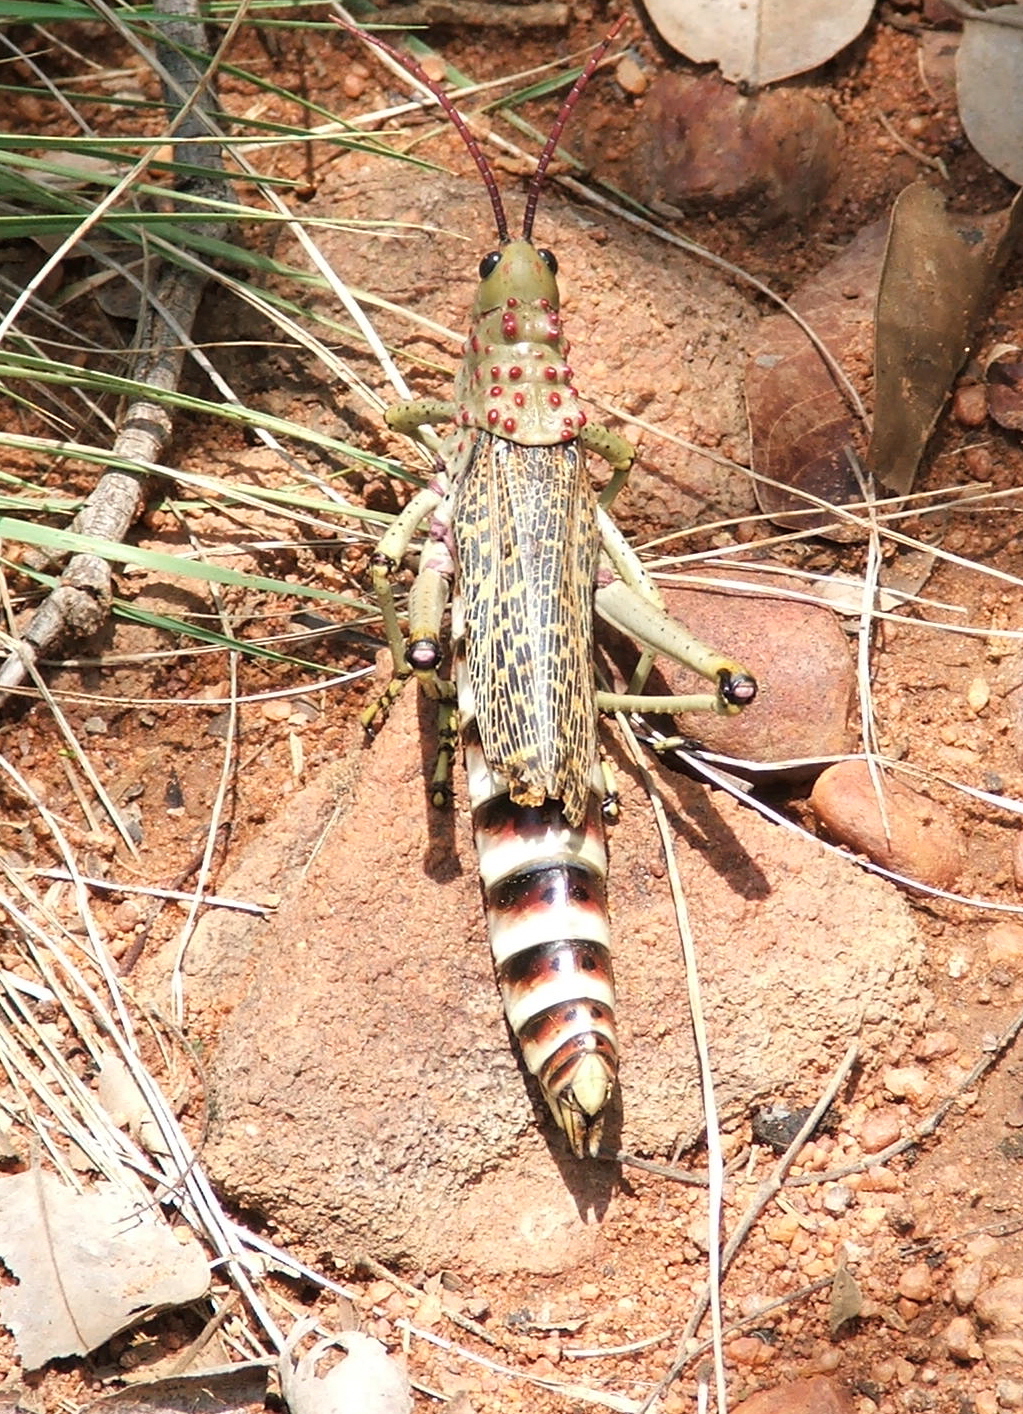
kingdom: Animalia
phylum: Arthropoda
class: Insecta
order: Orthoptera
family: Pyrgomorphidae
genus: Phymateus
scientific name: Phymateus baccatus
